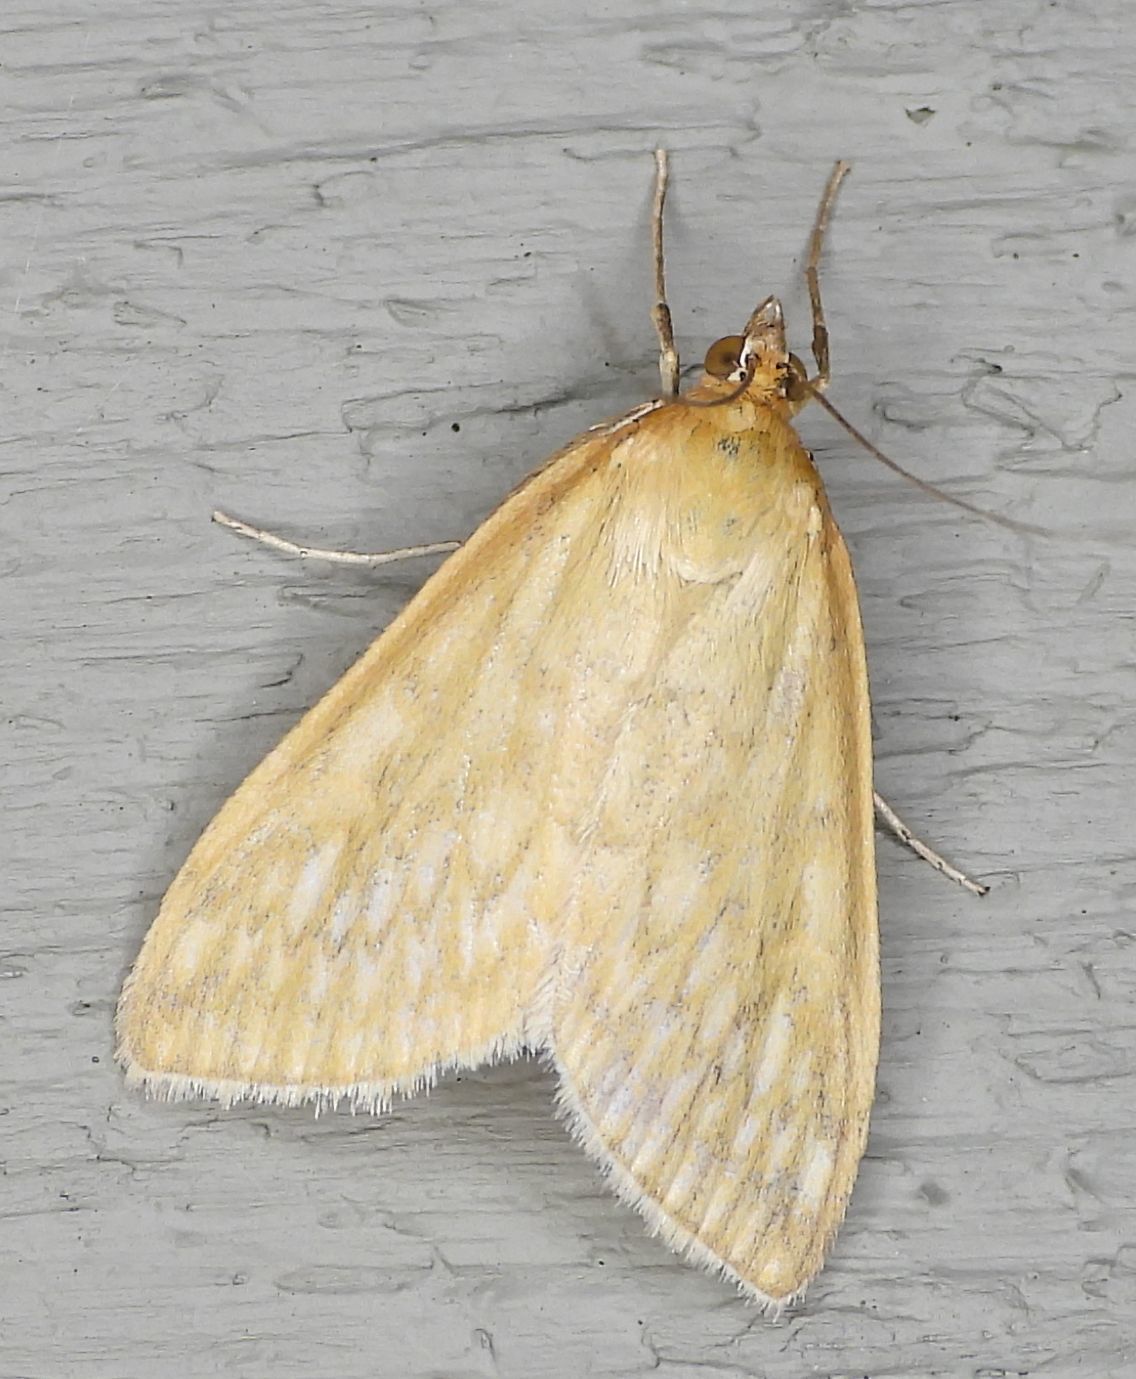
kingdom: Animalia
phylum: Arthropoda
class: Insecta
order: Lepidoptera
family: Crambidae
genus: Sitochroa
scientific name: Sitochroa chortalis
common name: Dimorphic sitochroa moth
